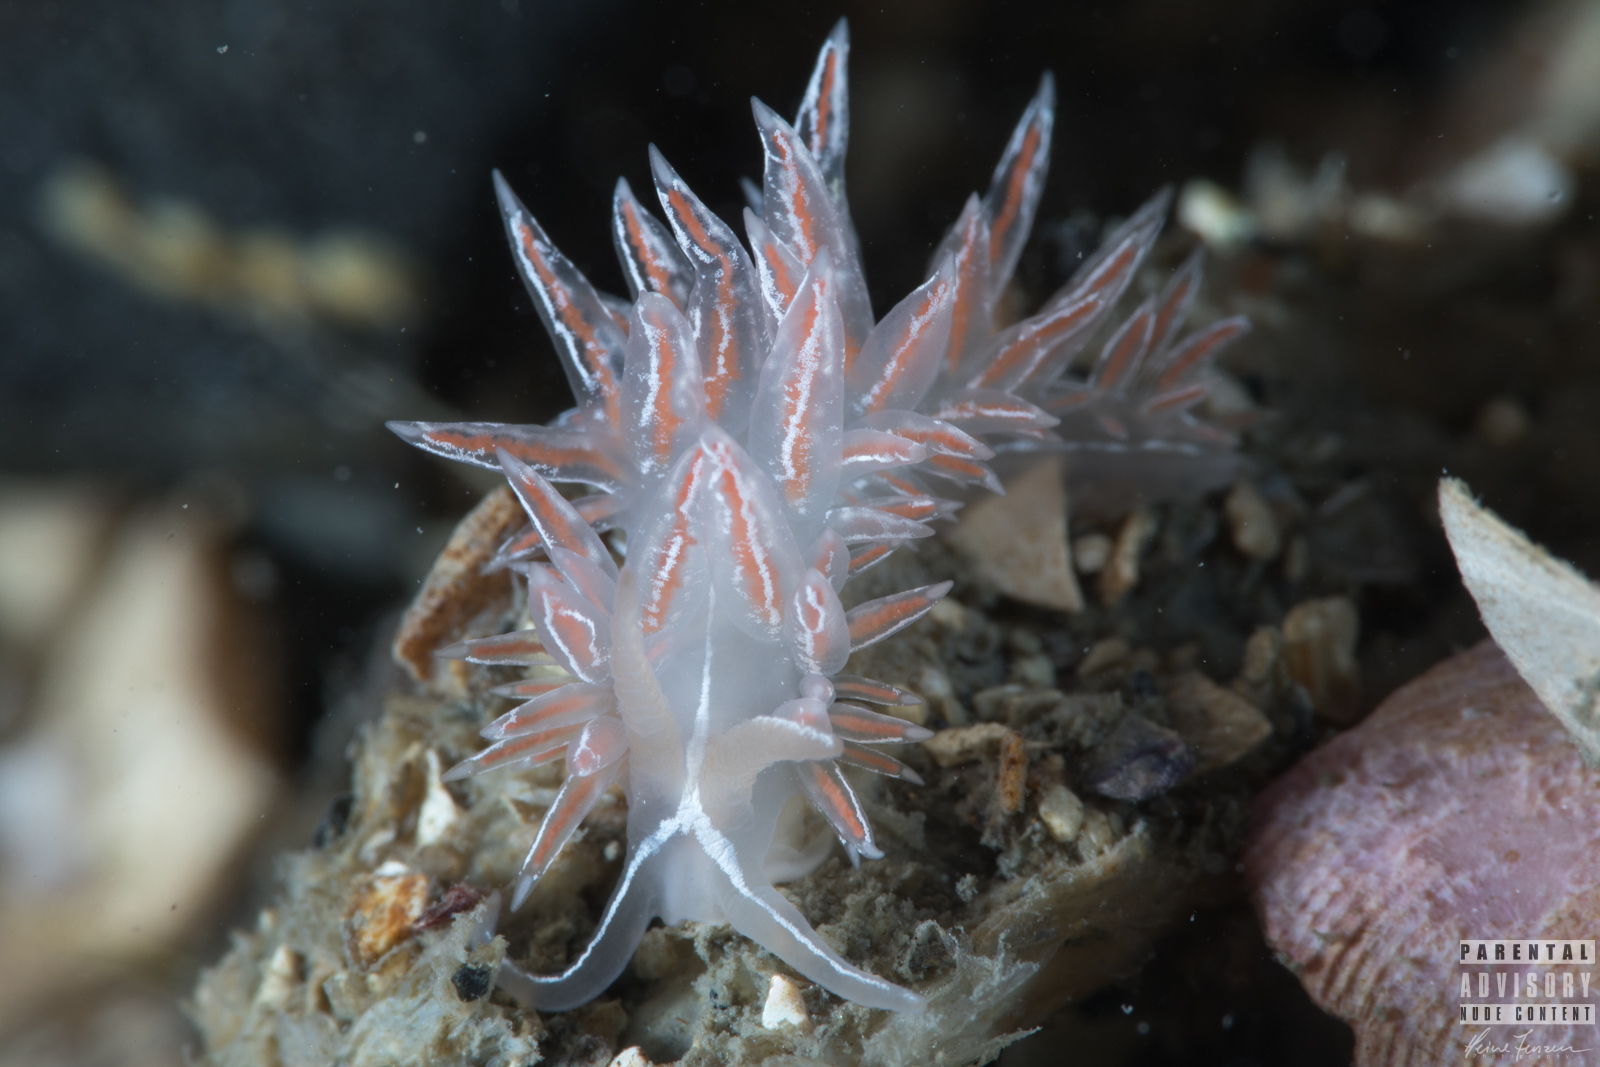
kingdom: Animalia
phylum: Mollusca
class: Gastropoda
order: Nudibranchia
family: Coryphellidae
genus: Coryphella
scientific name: Coryphella chriskaugei
